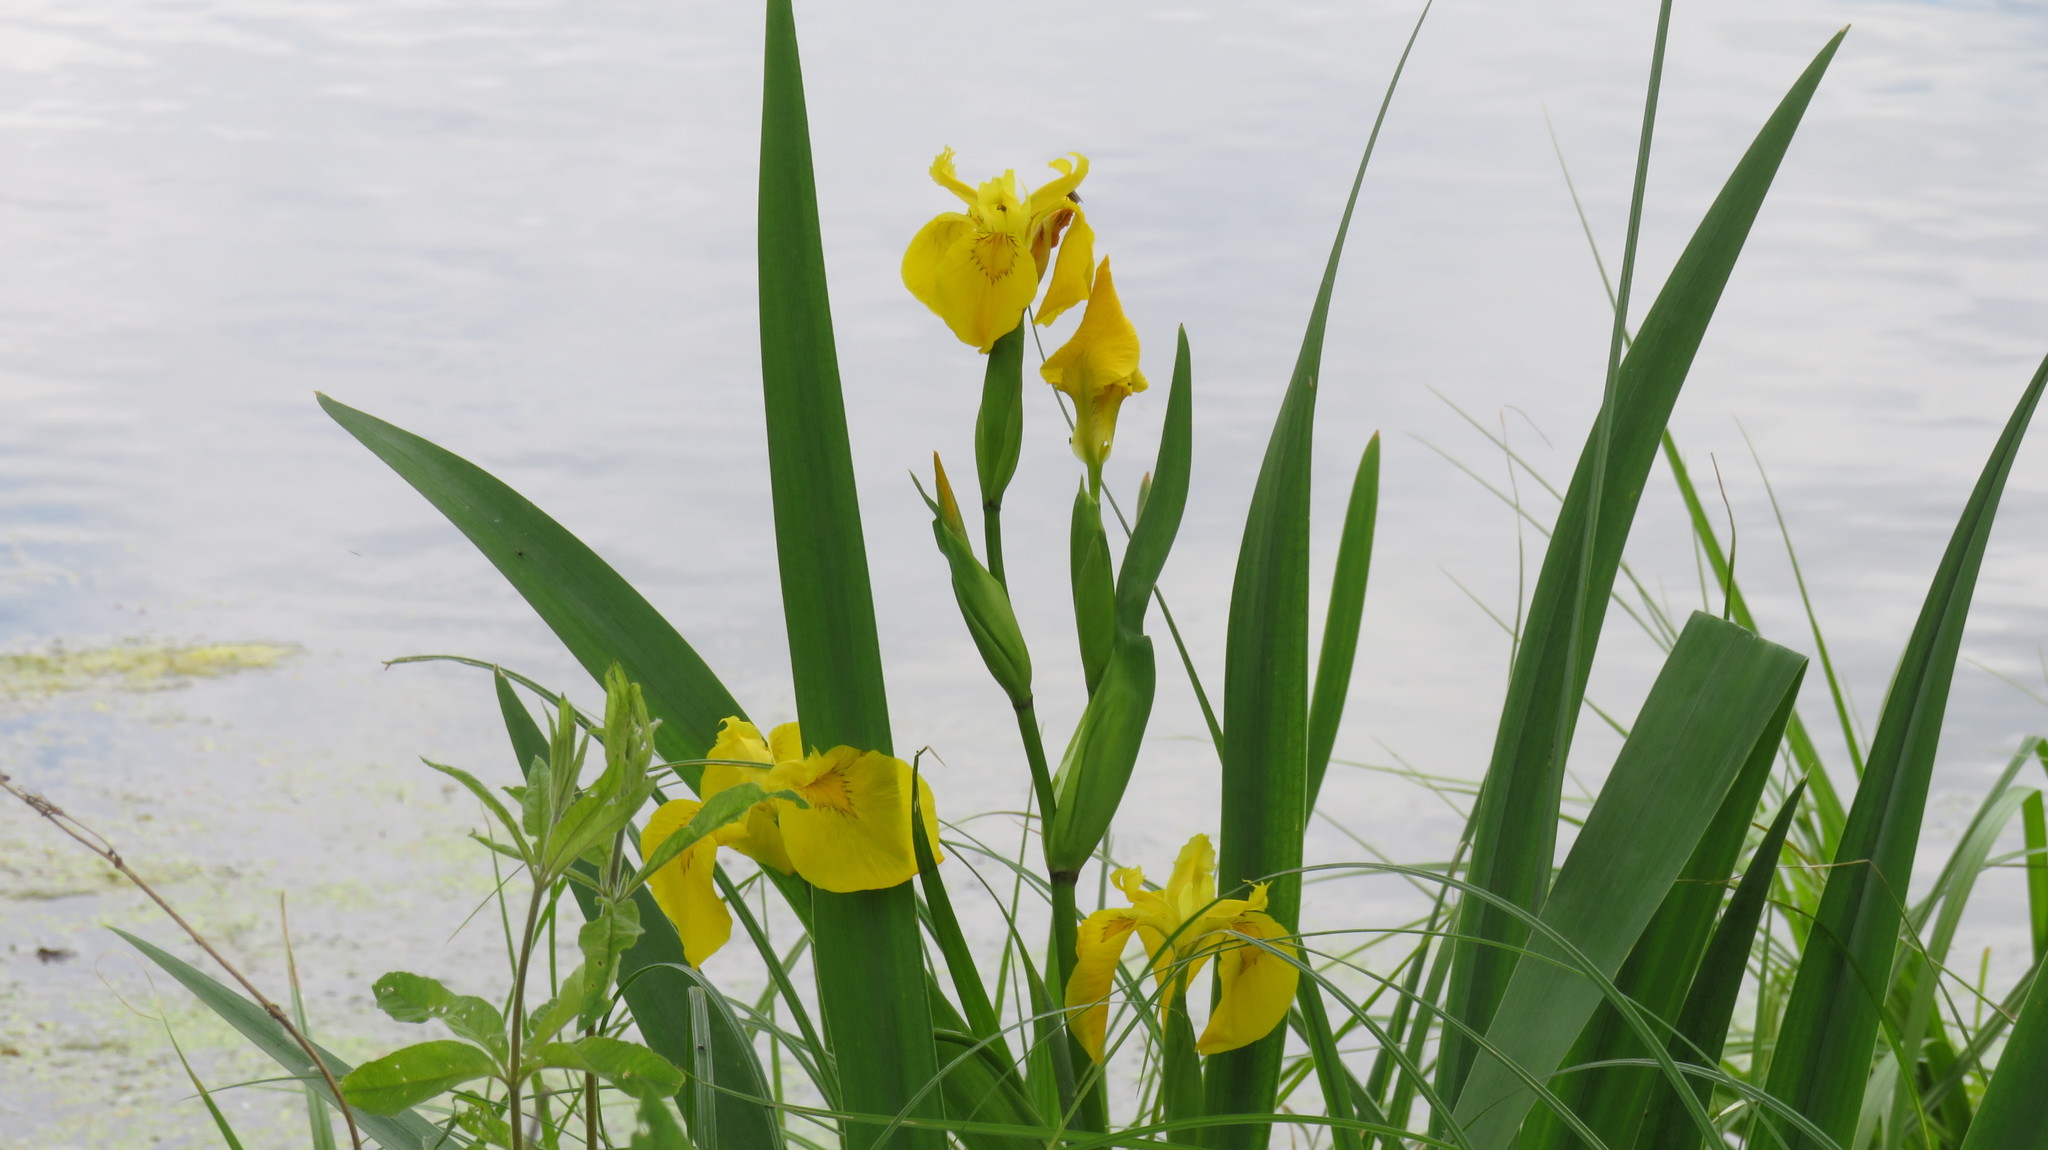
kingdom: Plantae
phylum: Tracheophyta
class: Liliopsida
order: Asparagales
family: Iridaceae
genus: Iris
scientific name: Iris pseudacorus
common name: Yellow flag
